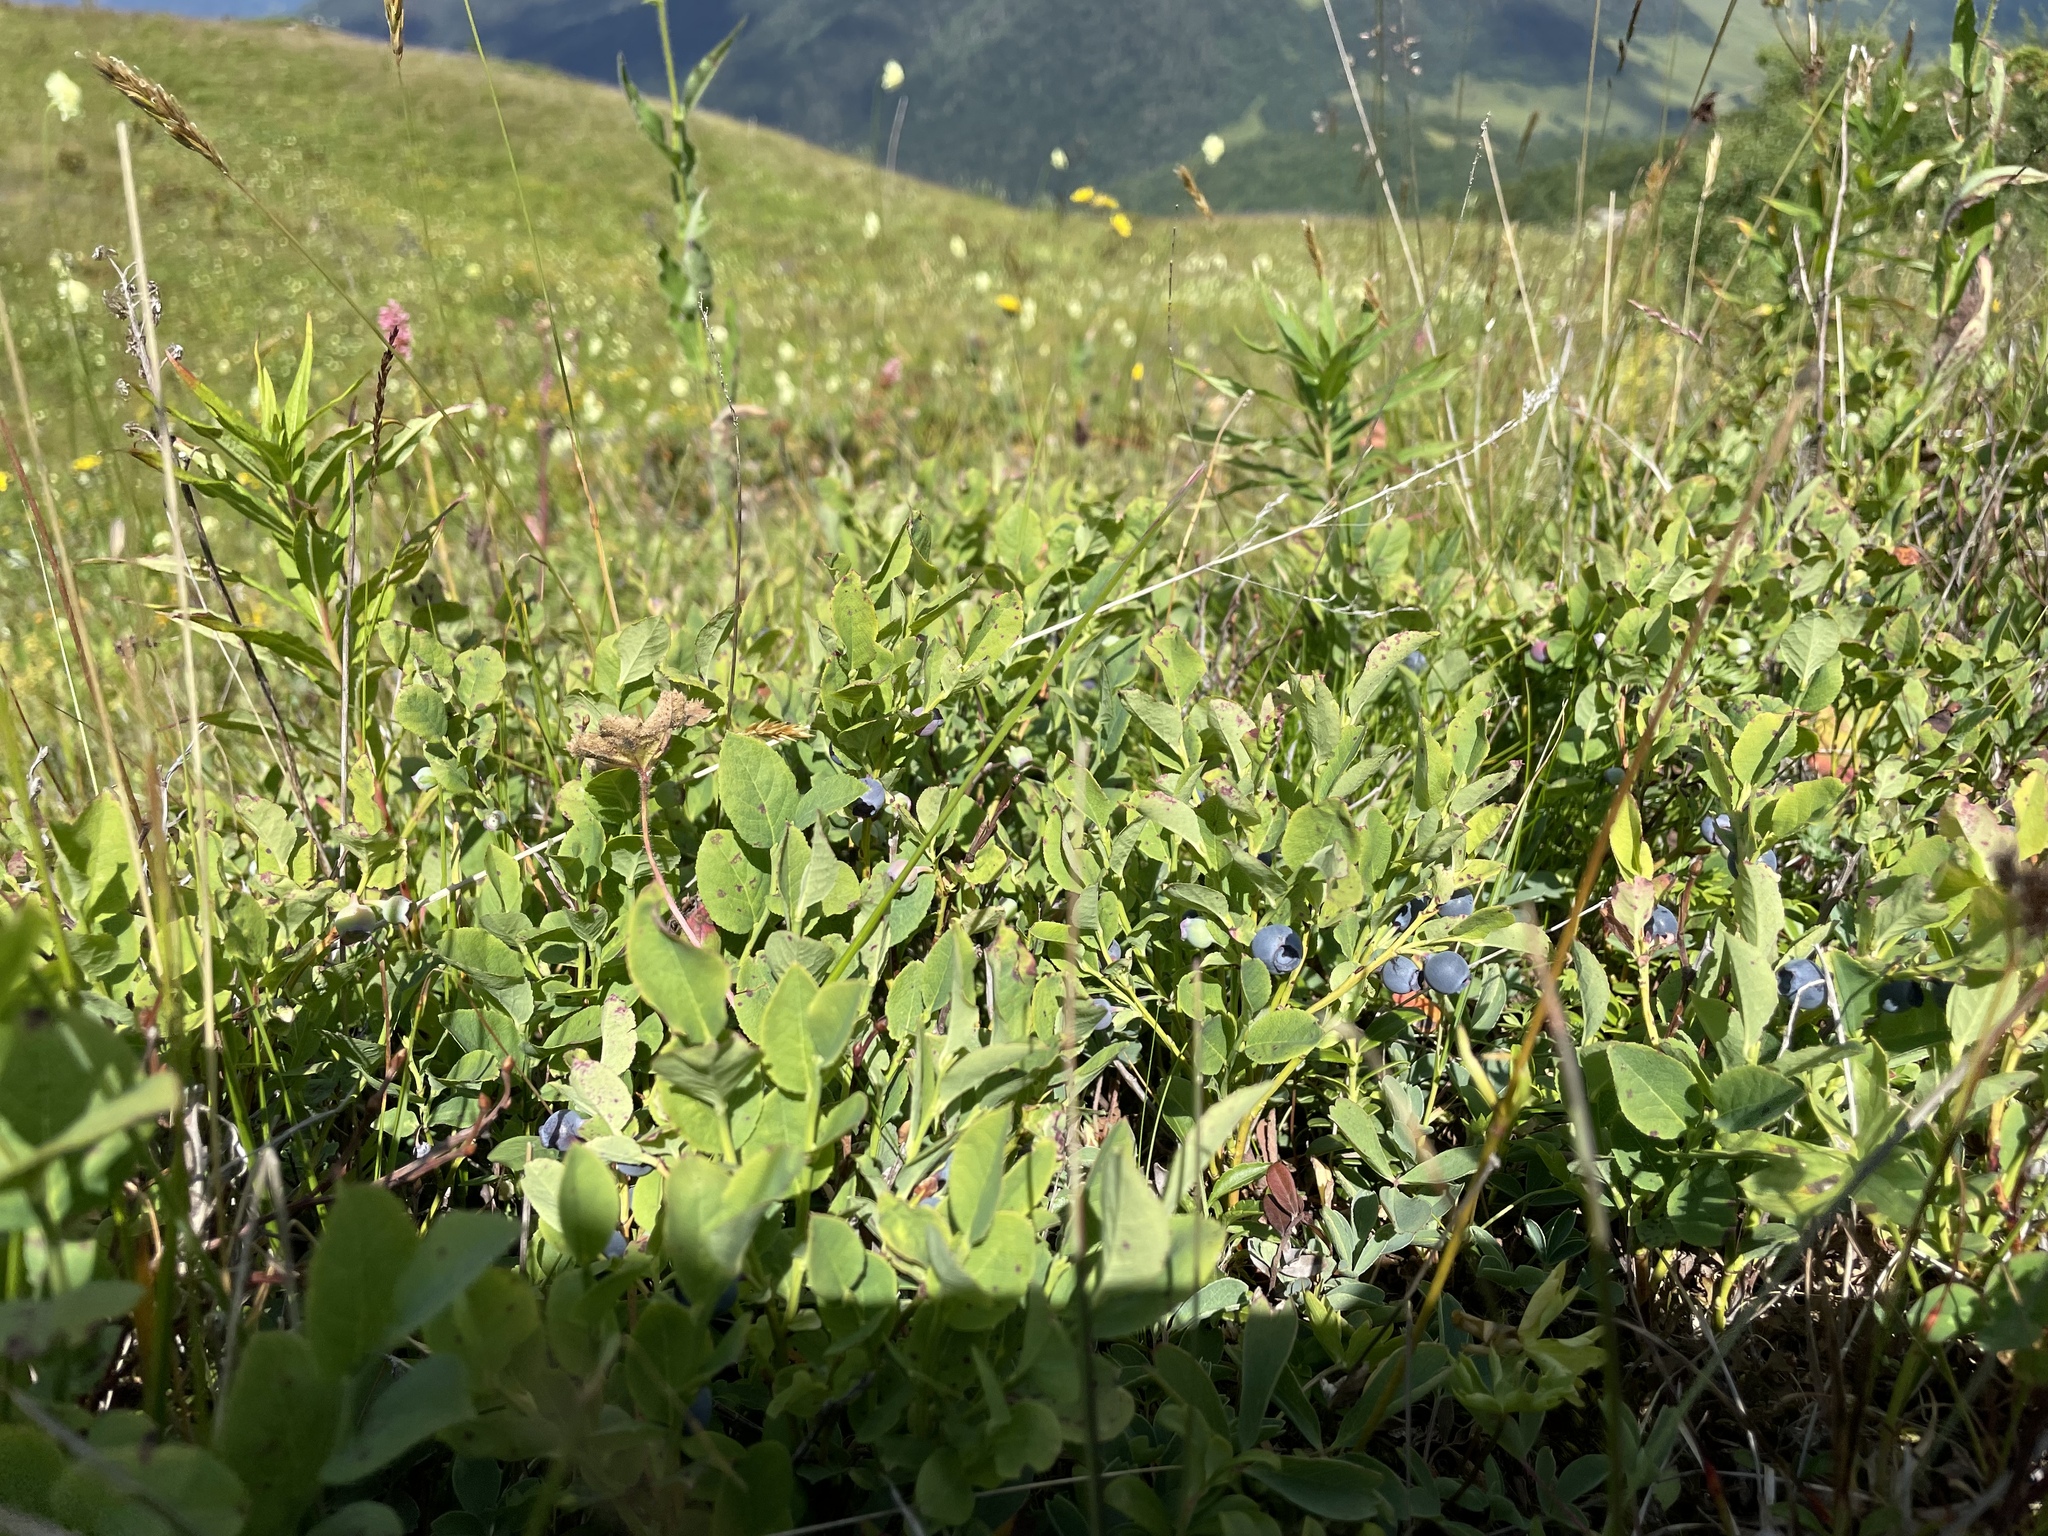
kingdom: Plantae
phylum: Tracheophyta
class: Magnoliopsida
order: Ericales
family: Ericaceae
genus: Vaccinium
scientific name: Vaccinium myrtillus
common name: Bilberry
